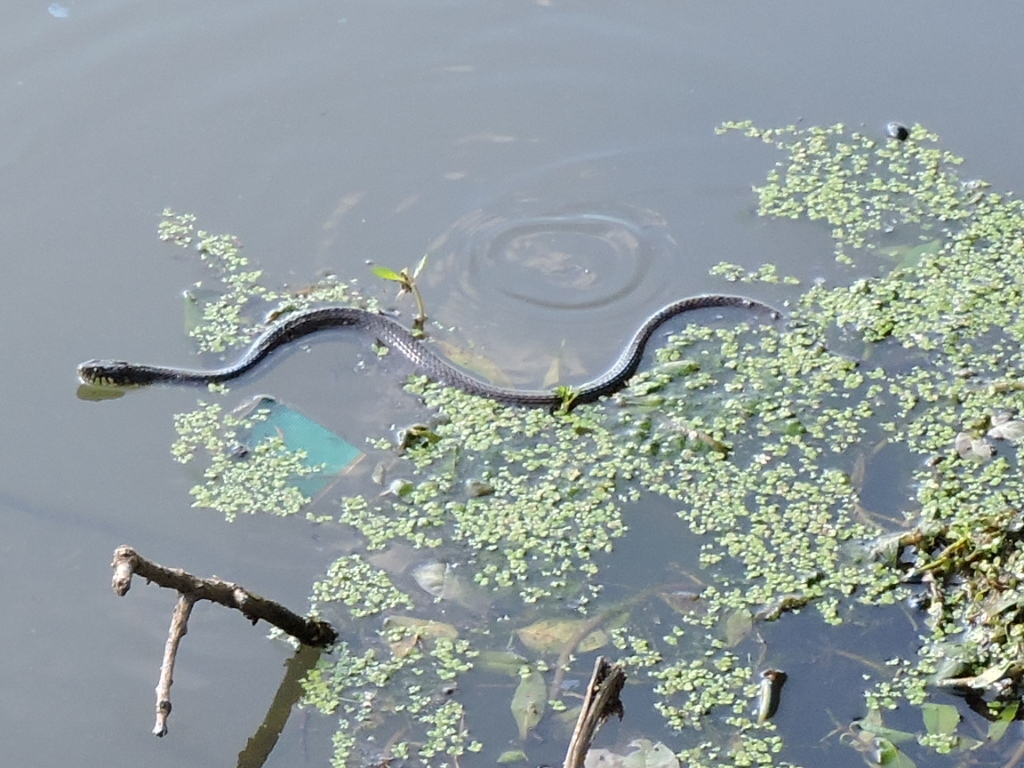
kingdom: Animalia
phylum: Chordata
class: Squamata
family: Colubridae
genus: Nerodia
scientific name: Nerodia erythrogaster
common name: Plainbelly water snake
